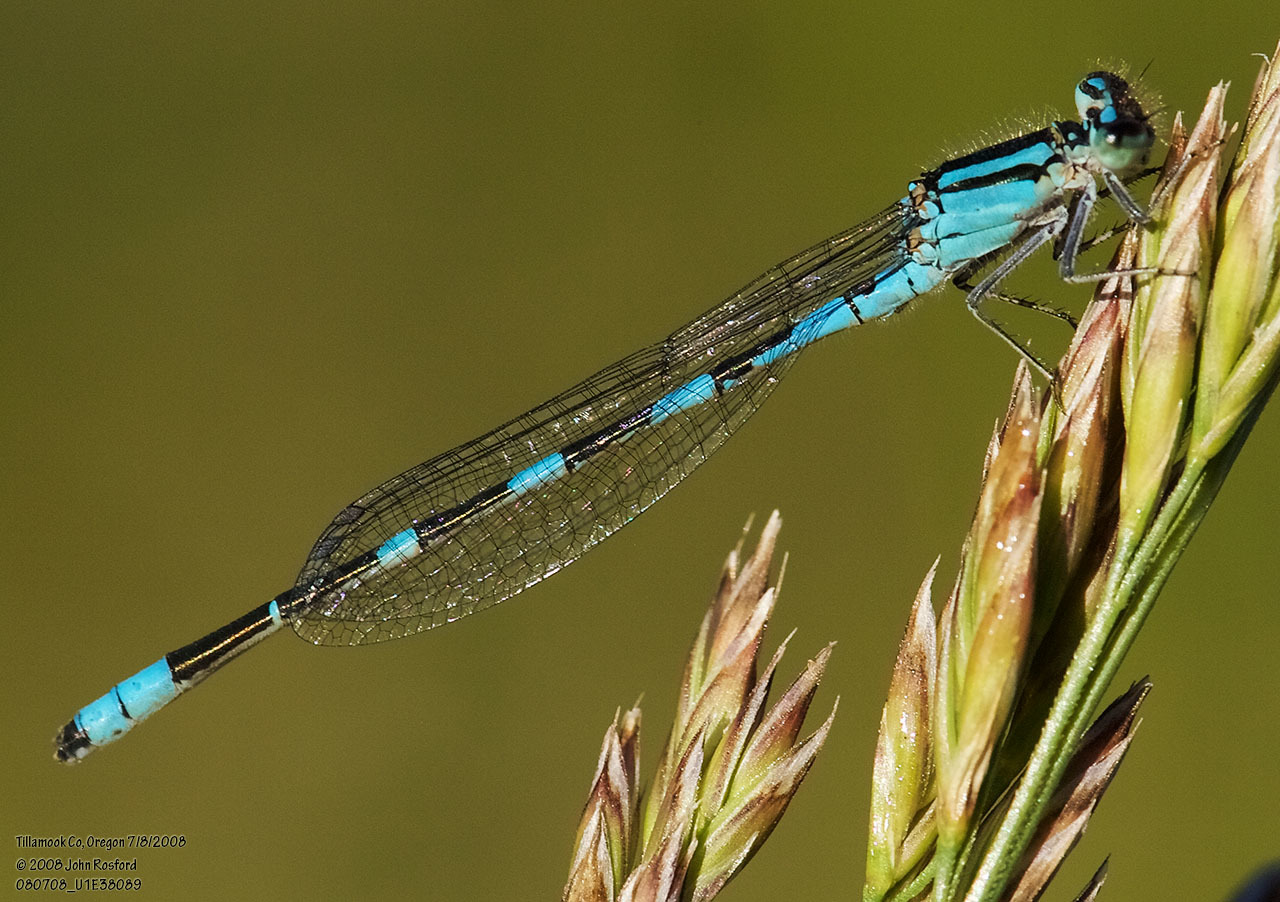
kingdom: Animalia
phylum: Arthropoda
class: Insecta
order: Odonata
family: Coenagrionidae
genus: Enallagma
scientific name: Enallagma carunculatum
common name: Tule bluet
